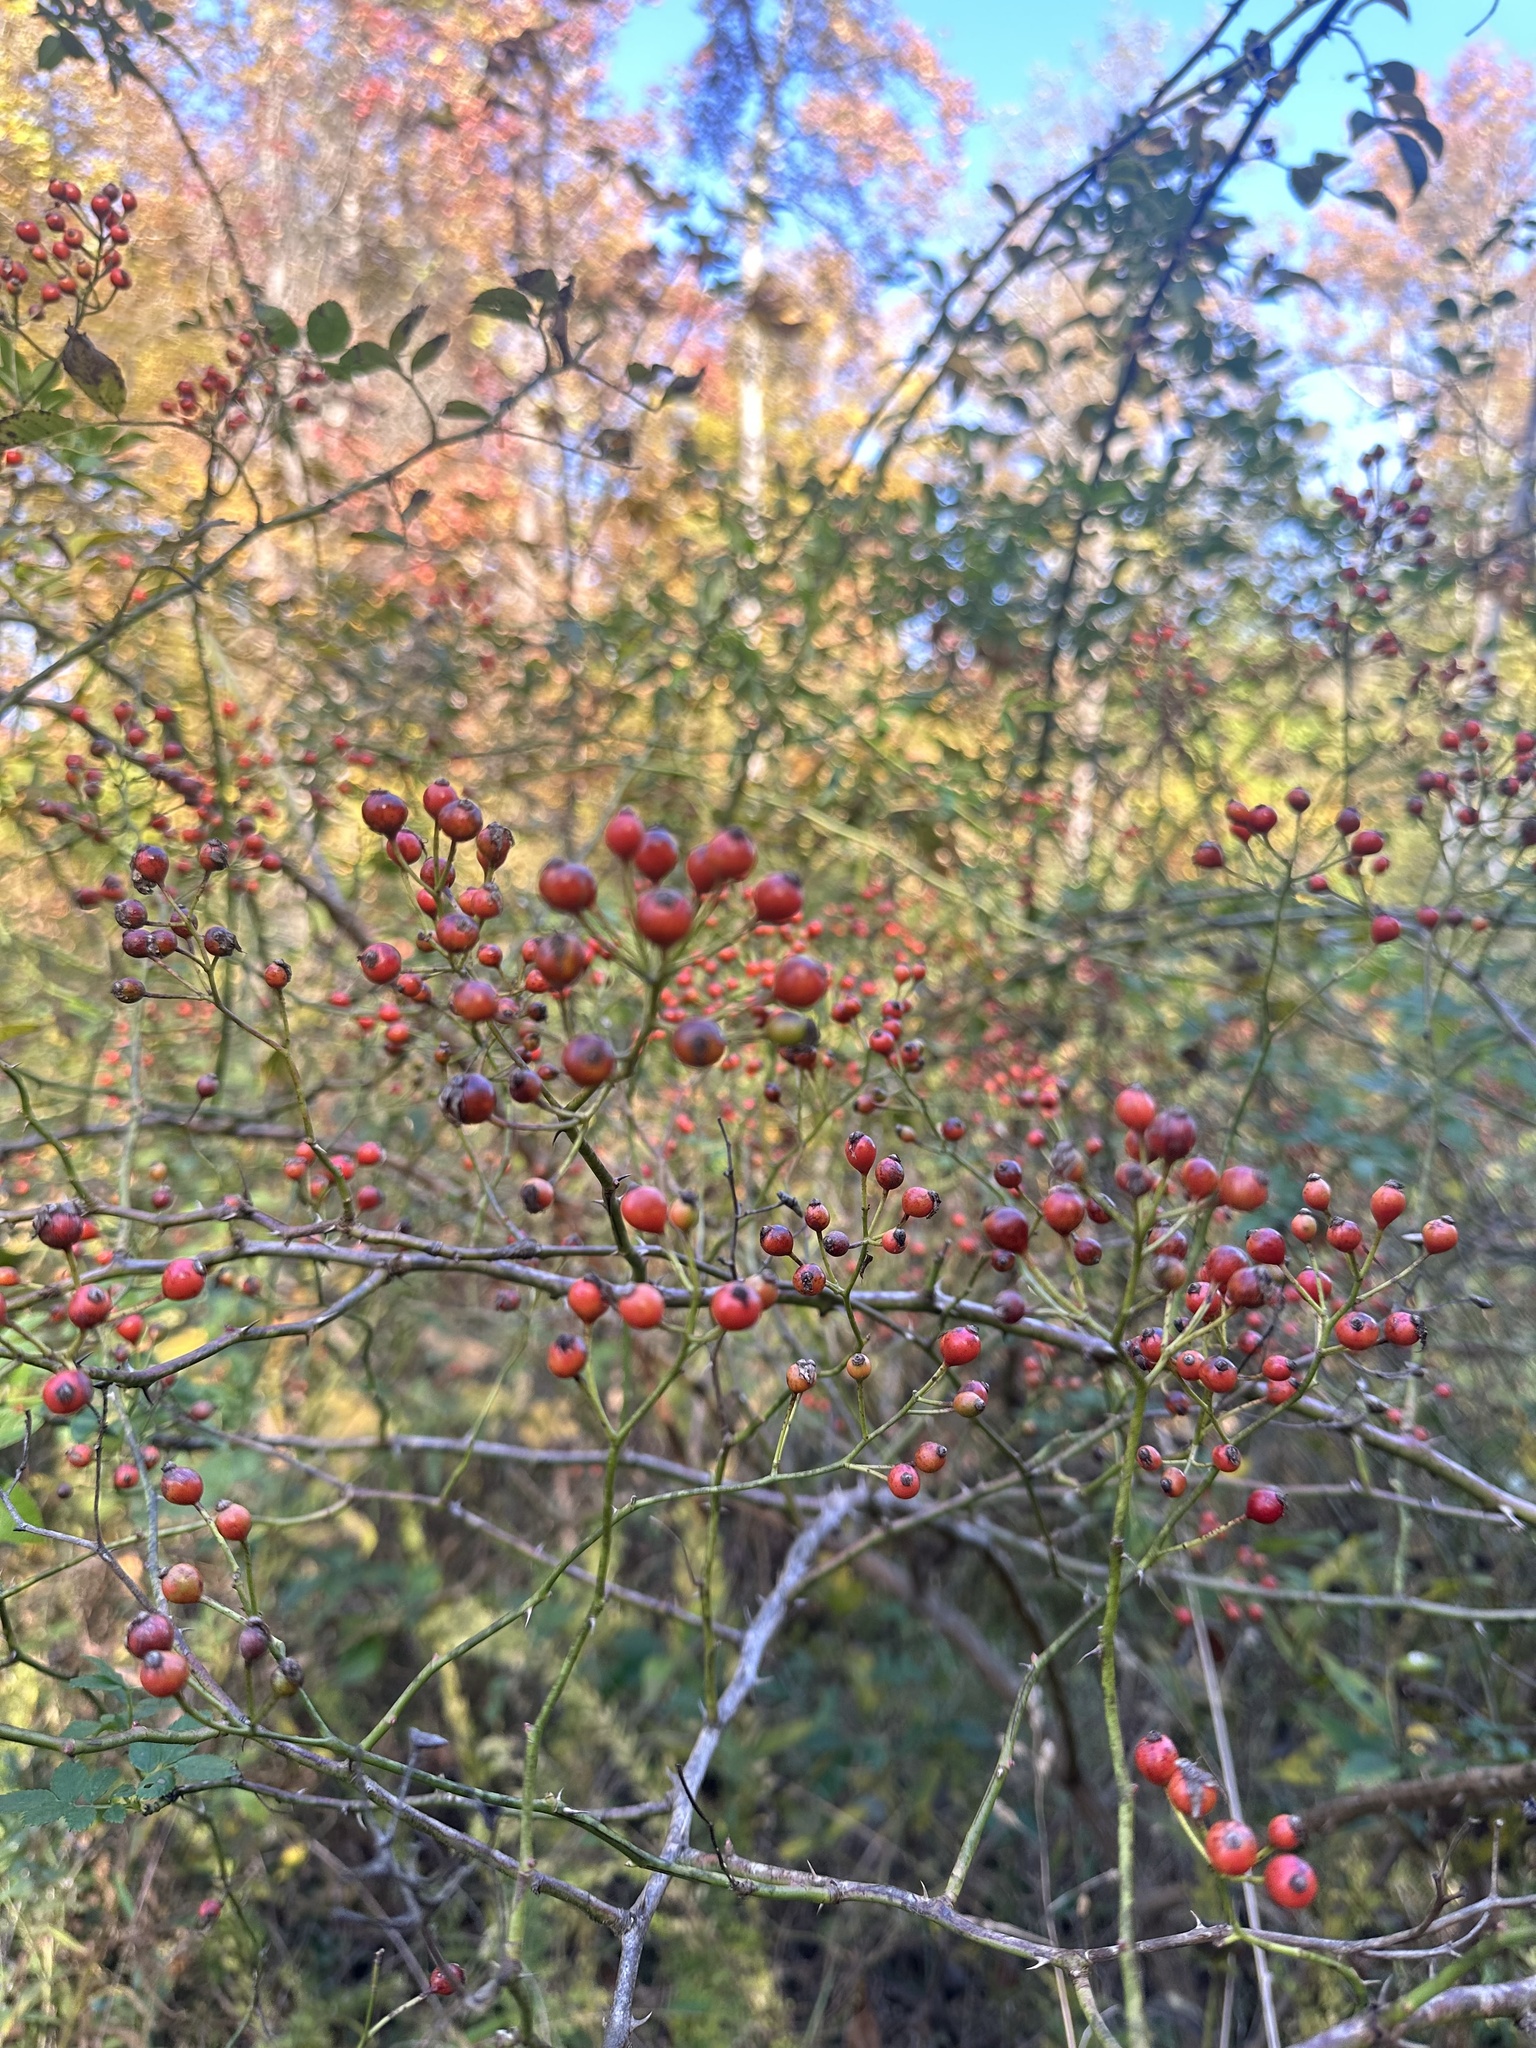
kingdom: Plantae
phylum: Tracheophyta
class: Magnoliopsida
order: Rosales
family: Rosaceae
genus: Rosa
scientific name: Rosa multiflora
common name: Multiflora rose
